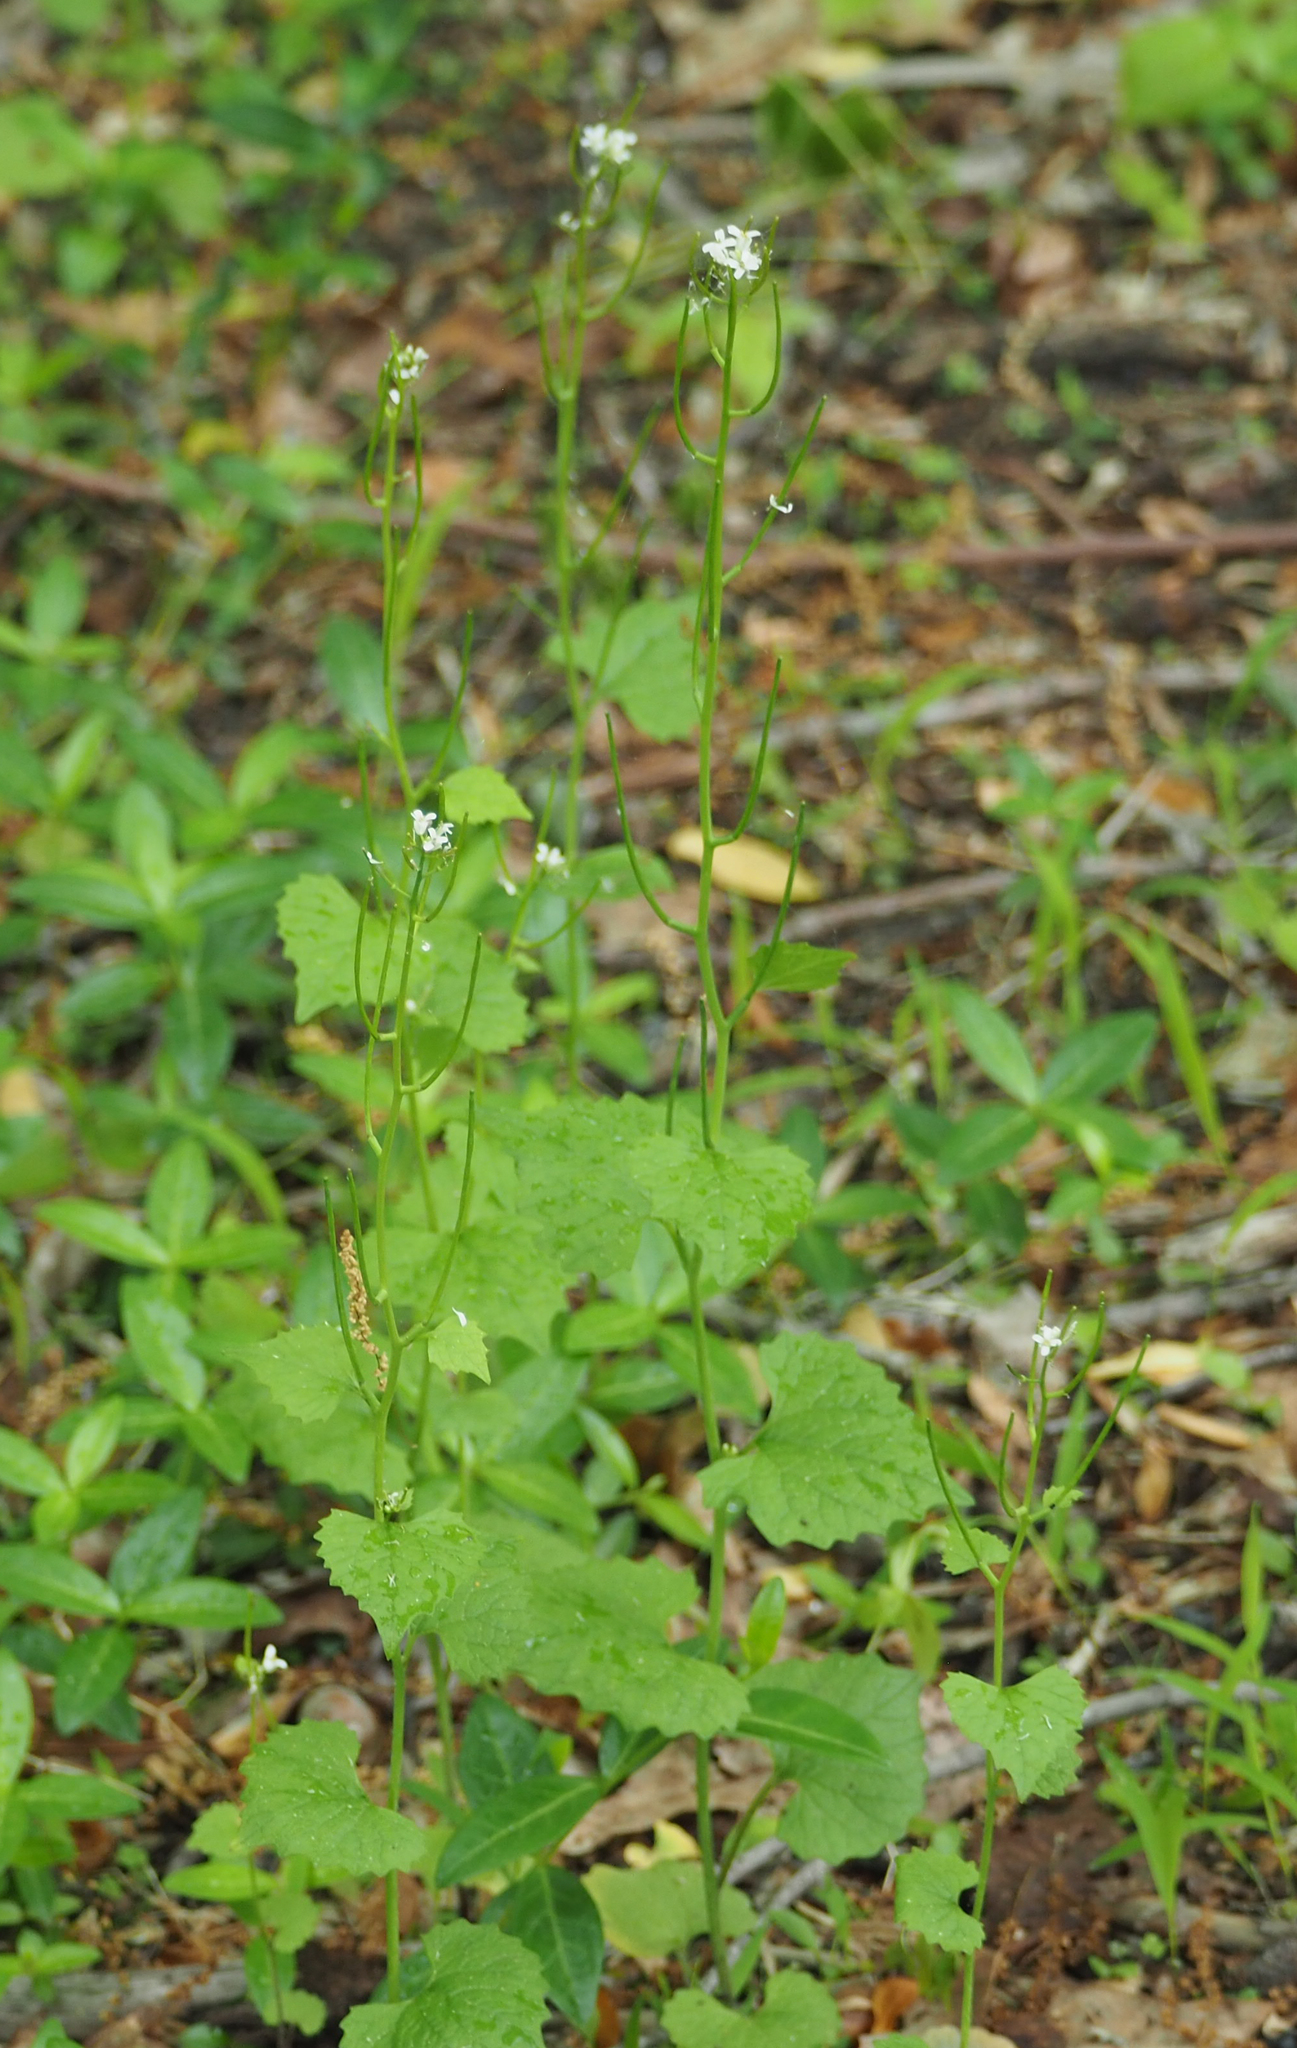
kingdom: Plantae
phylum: Tracheophyta
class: Magnoliopsida
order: Brassicales
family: Brassicaceae
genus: Alliaria
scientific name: Alliaria petiolata
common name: Garlic mustard
